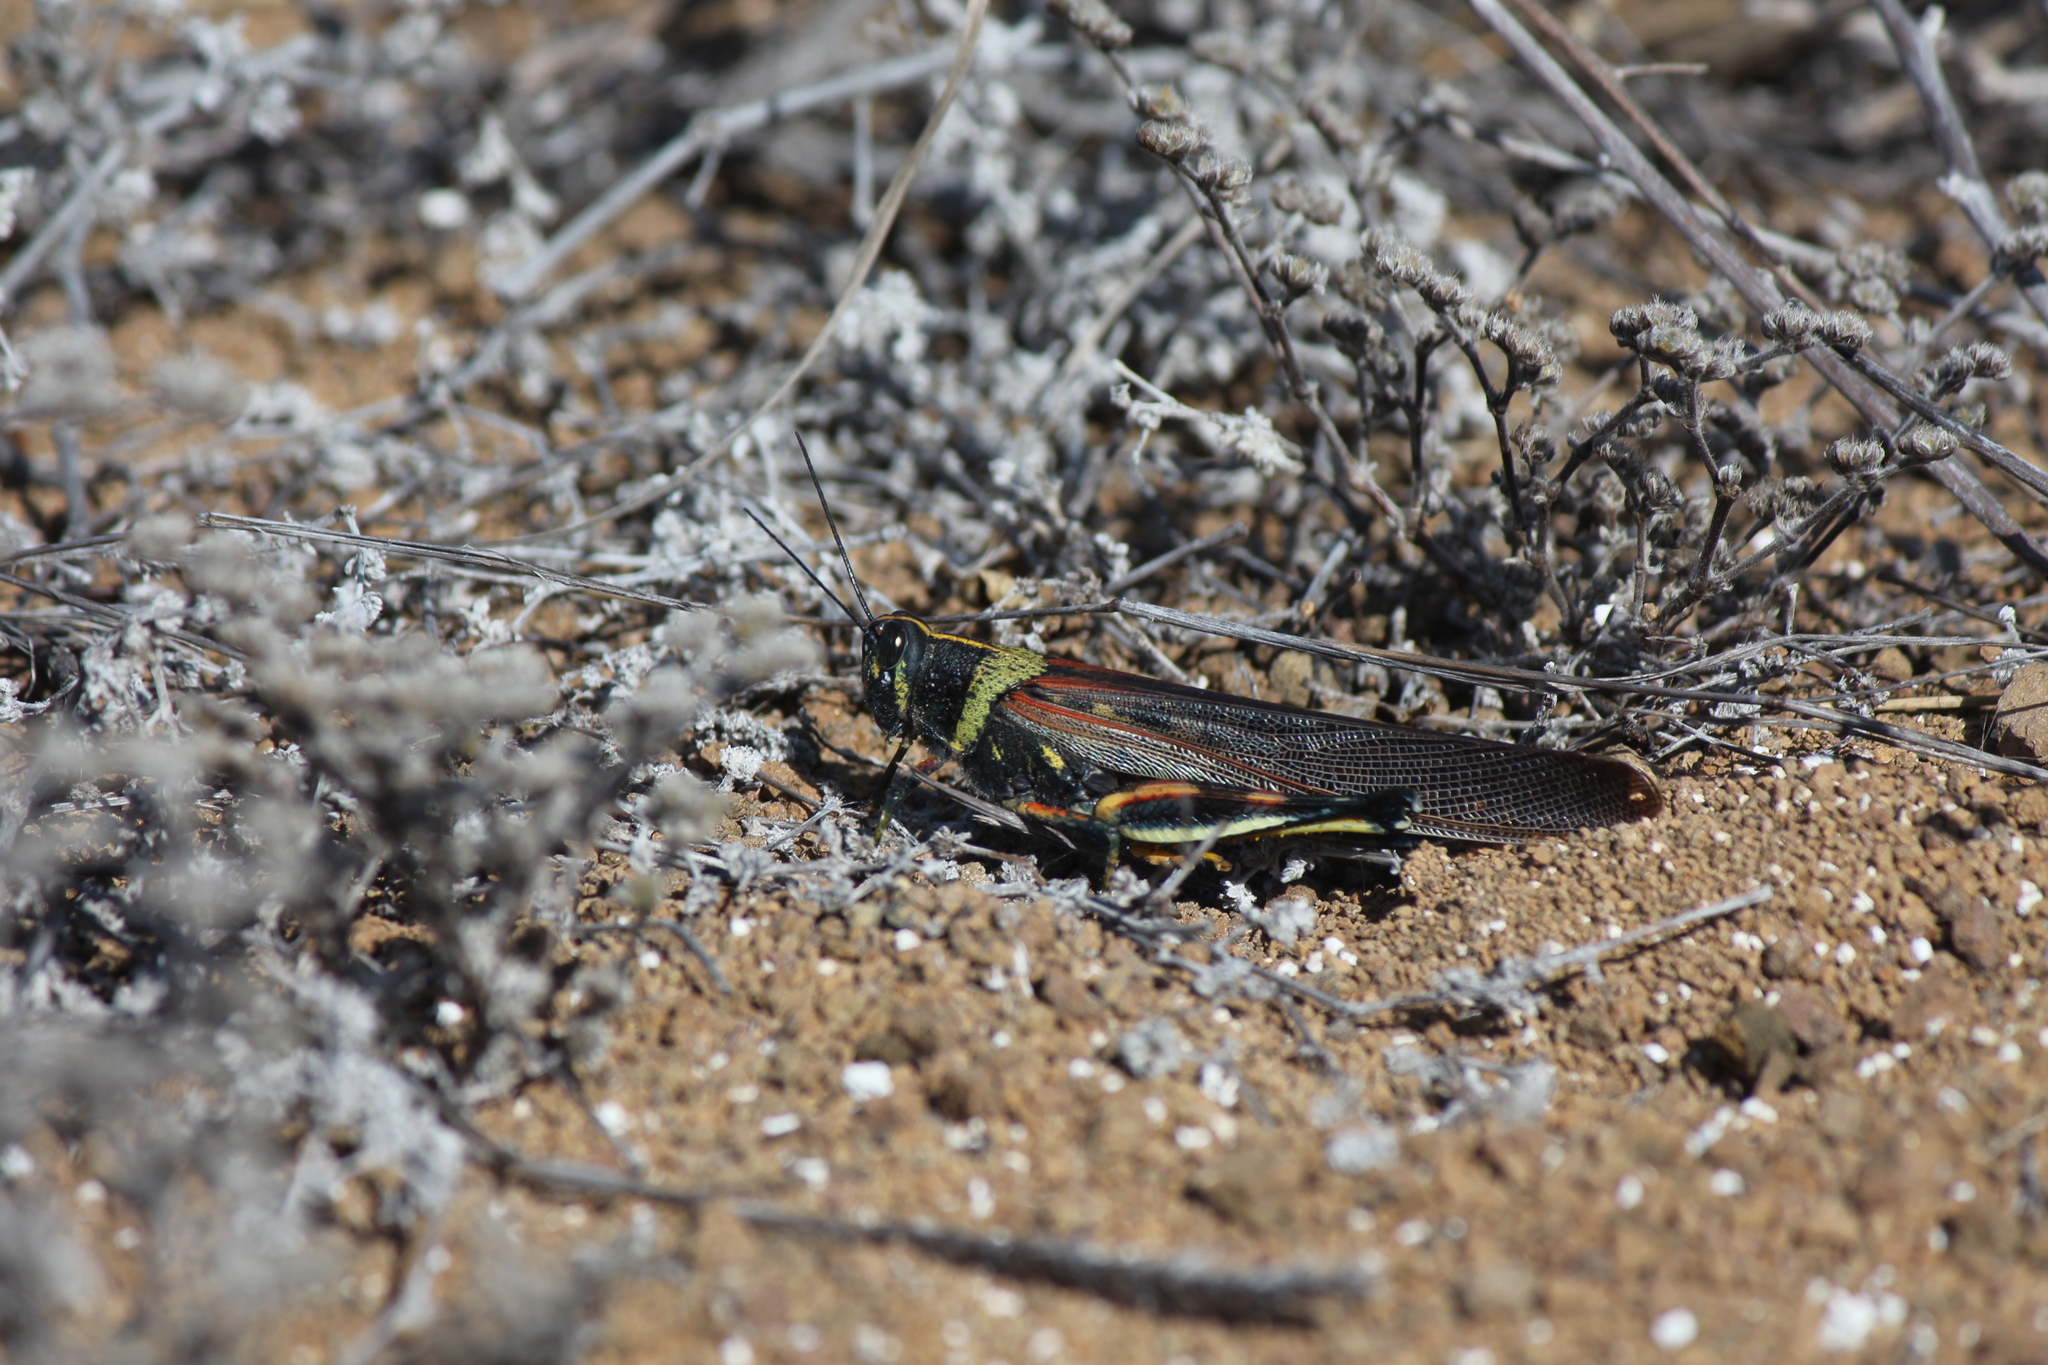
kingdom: Animalia
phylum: Arthropoda
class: Insecta
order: Orthoptera
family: Acrididae
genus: Schistocerca
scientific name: Schistocerca melanocera
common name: Large painted locust
